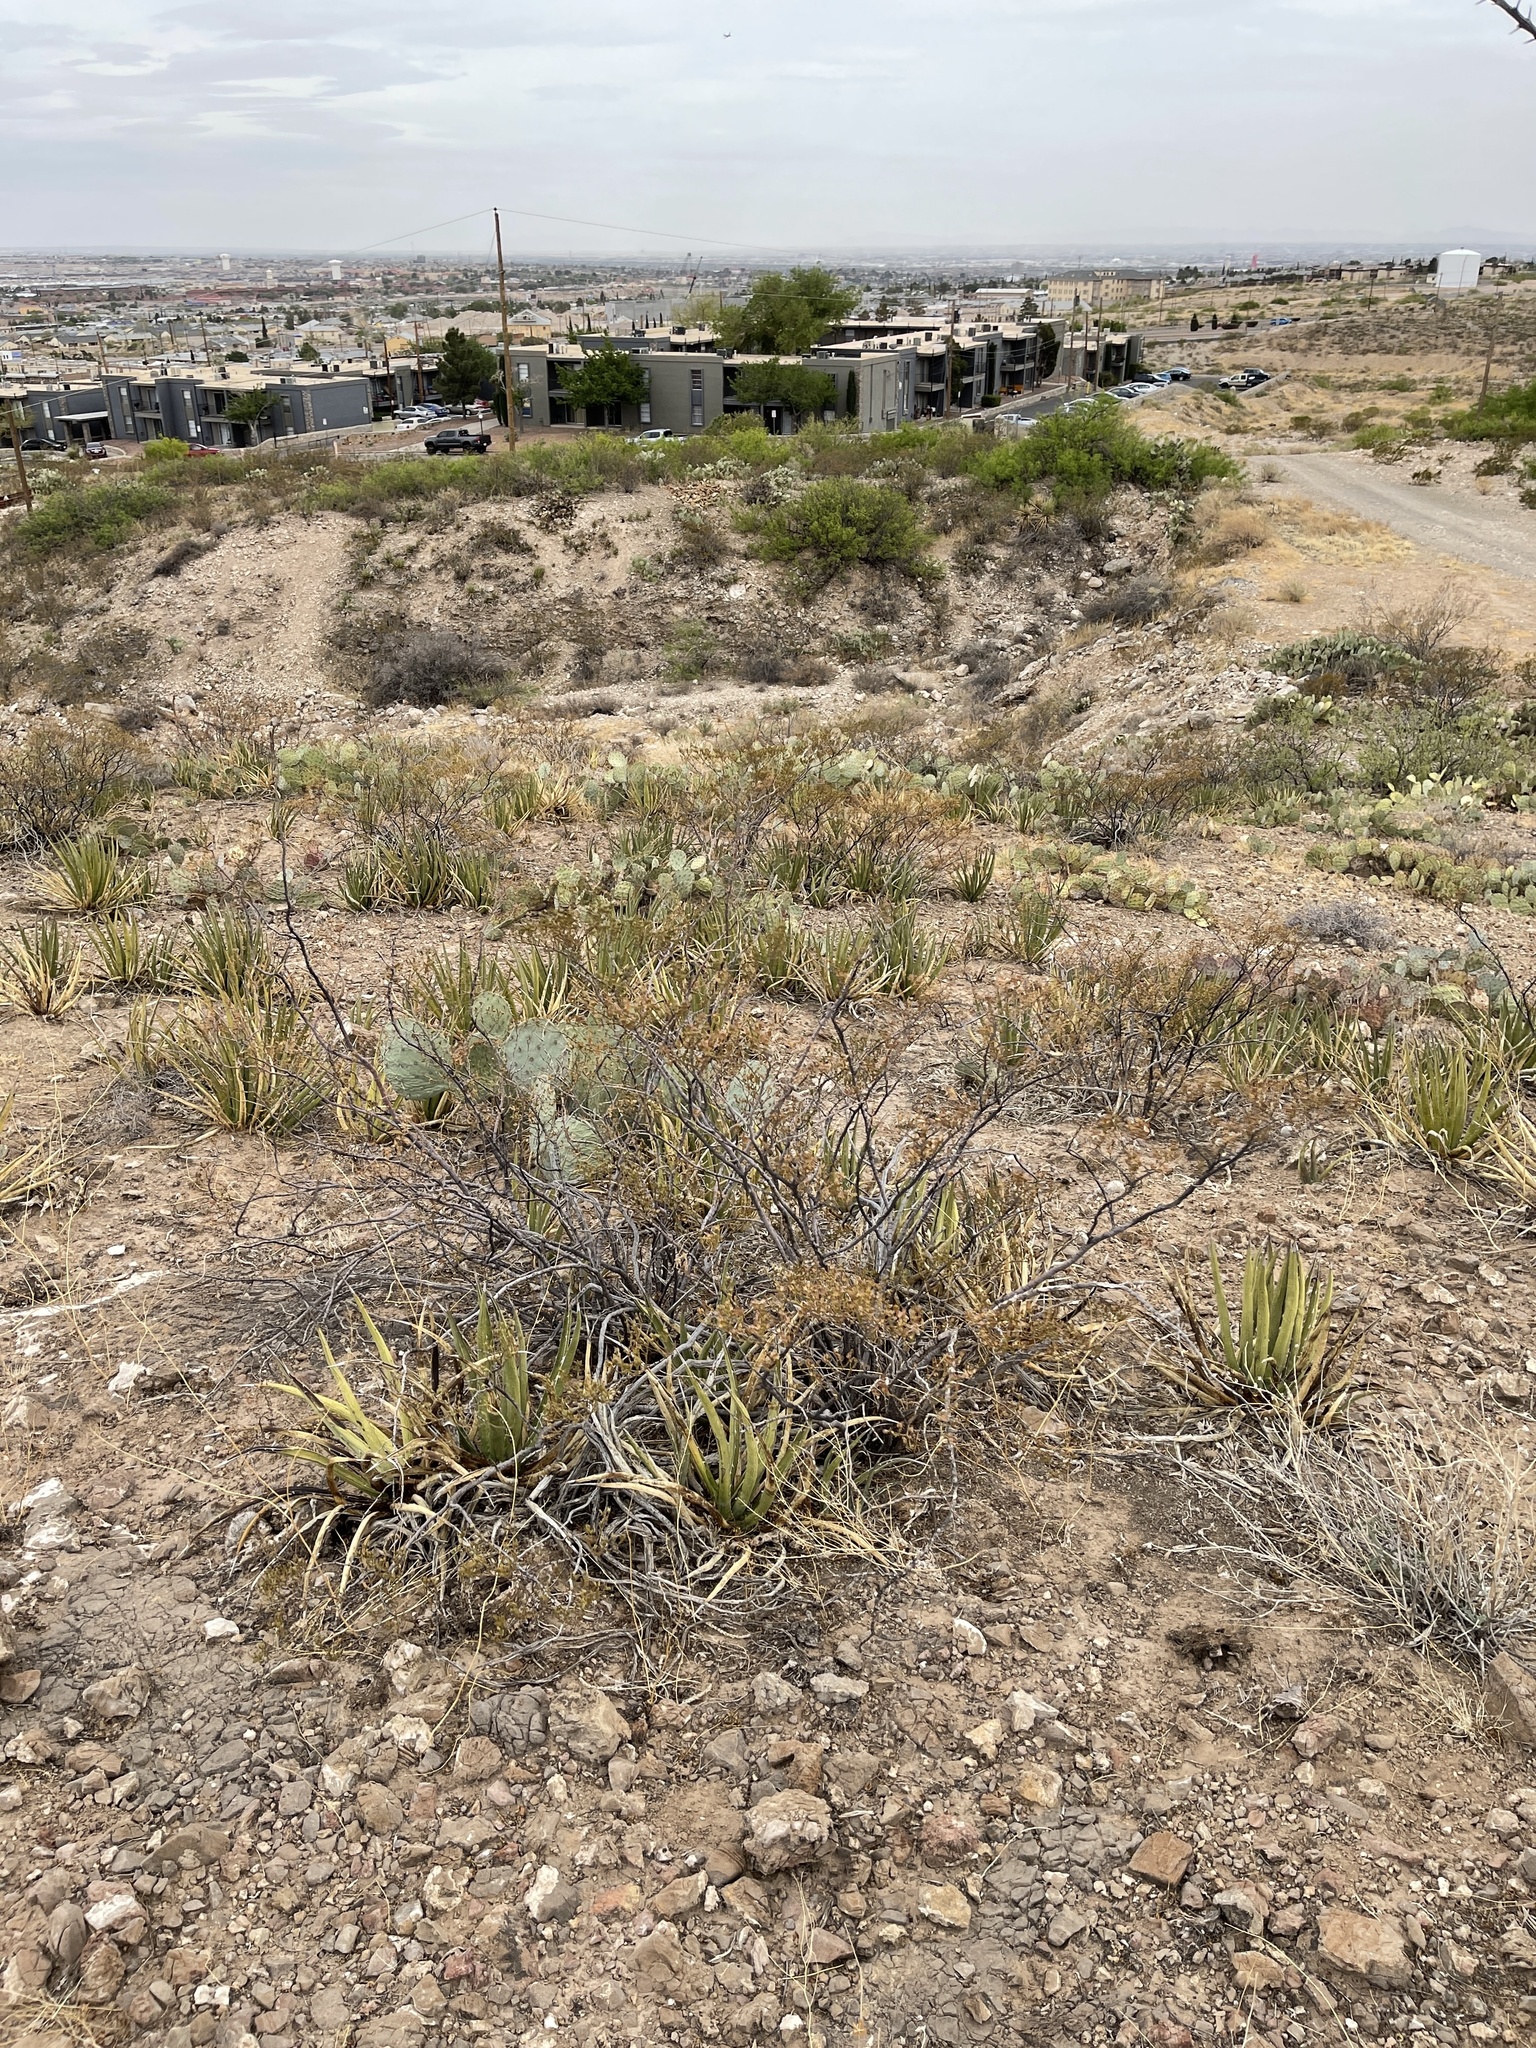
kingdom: Plantae
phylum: Tracheophyta
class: Magnoliopsida
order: Zygophyllales
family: Zygophyllaceae
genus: Larrea
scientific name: Larrea tridentata
